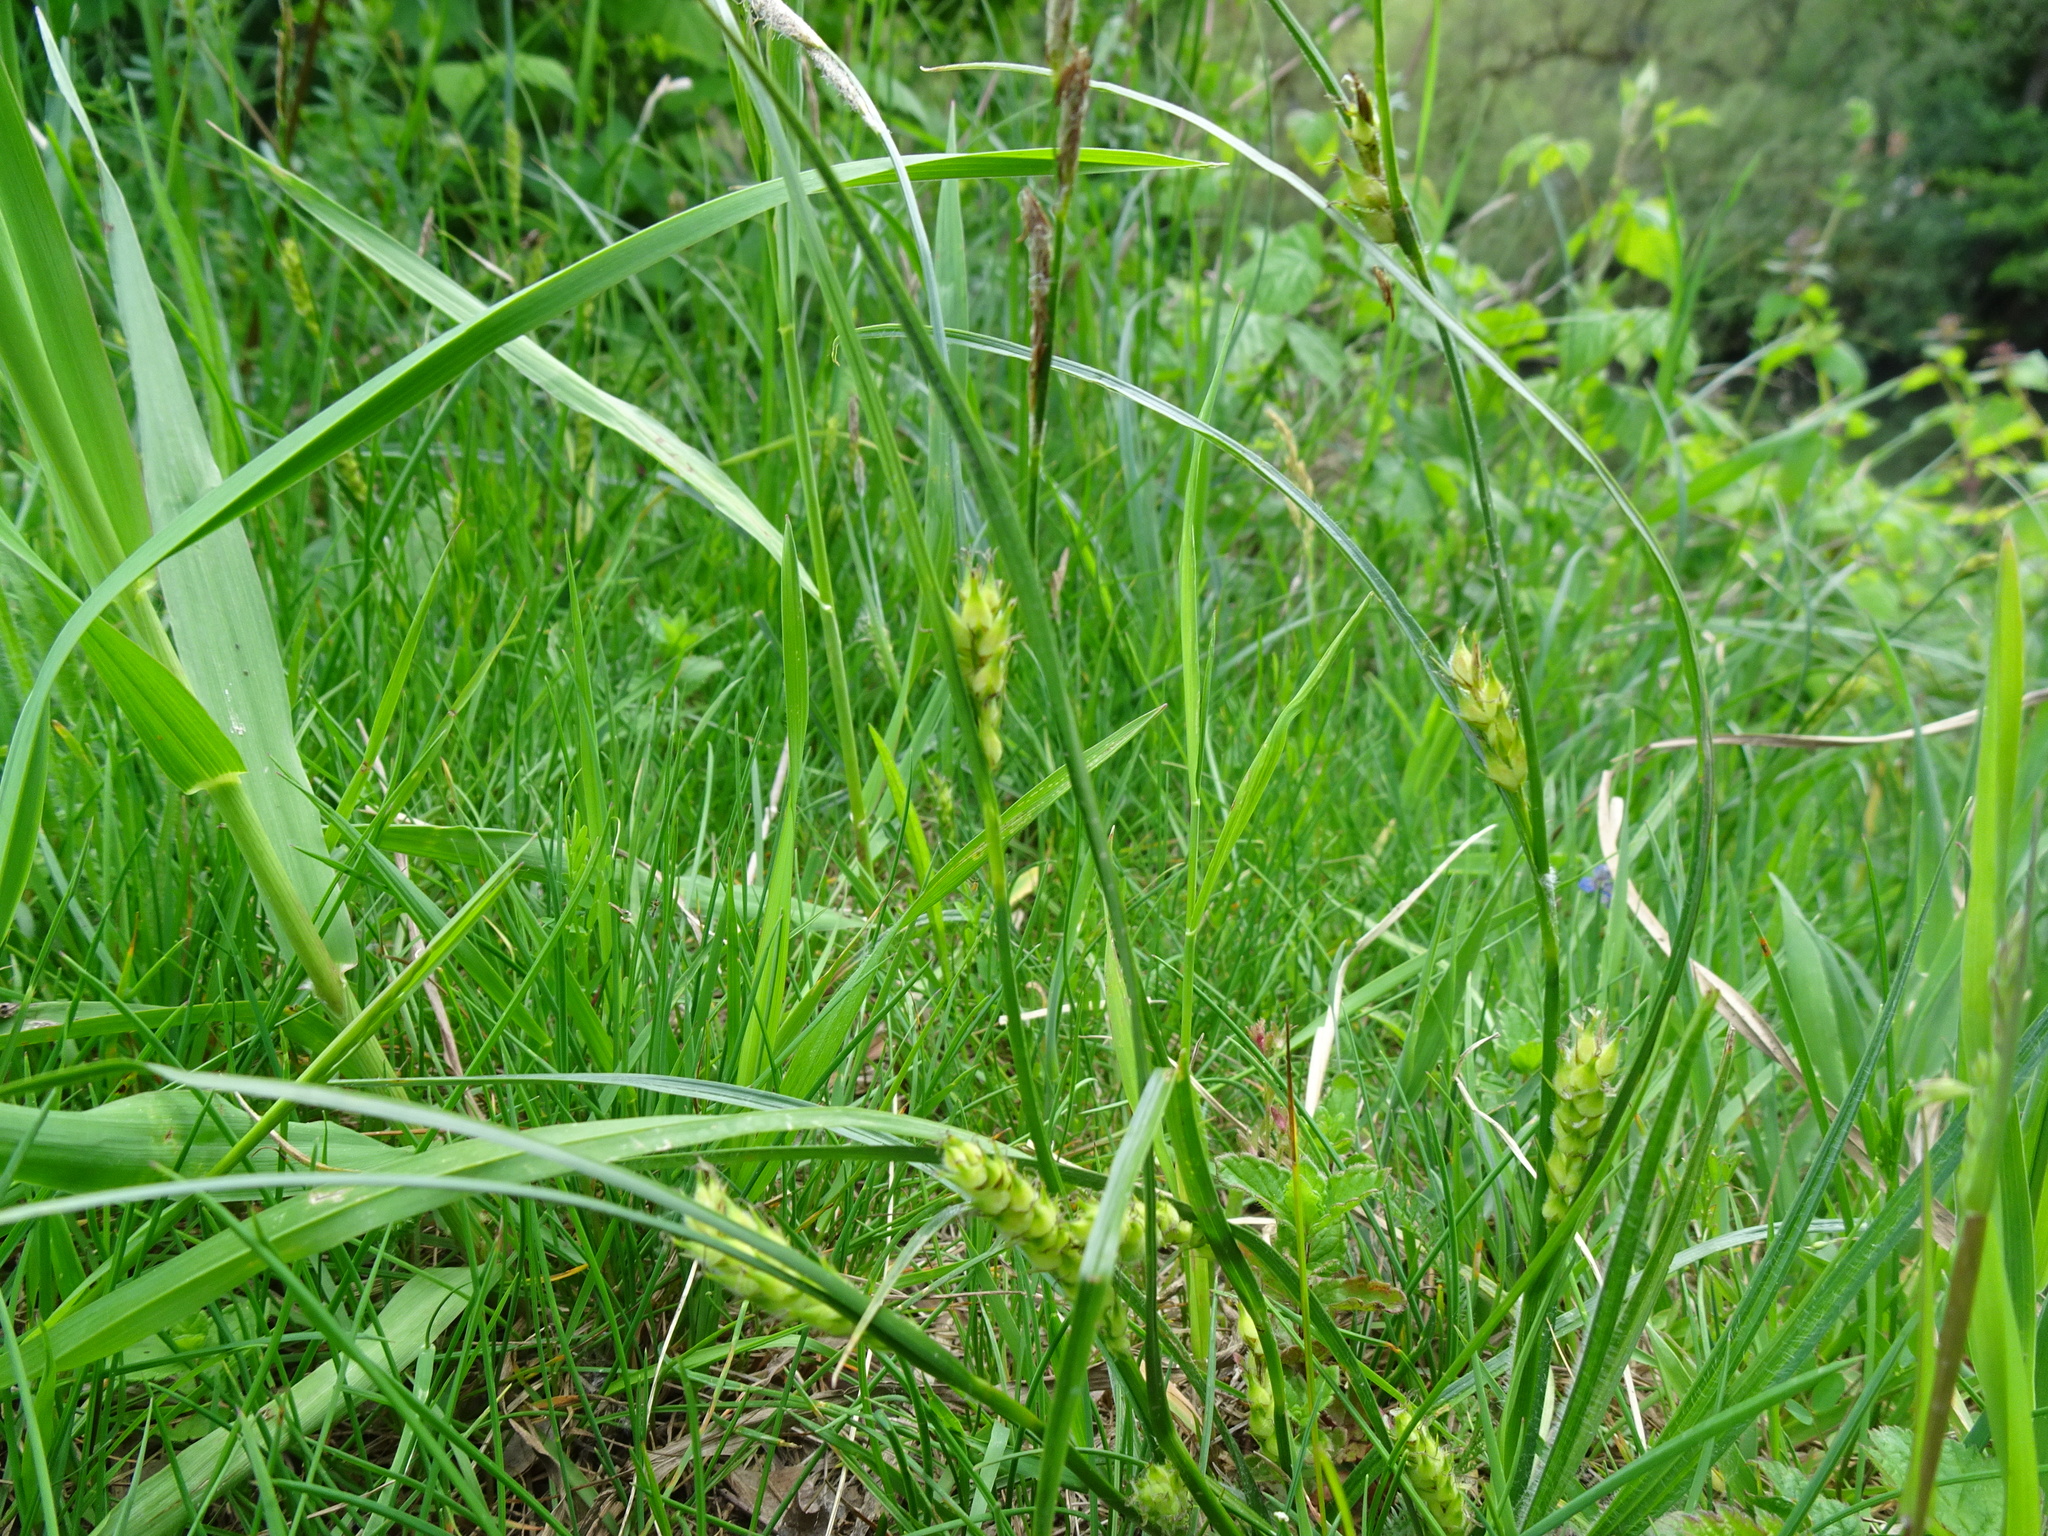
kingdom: Plantae
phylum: Tracheophyta
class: Liliopsida
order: Poales
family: Cyperaceae
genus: Carex
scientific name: Carex hirta
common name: Hairy sedge
